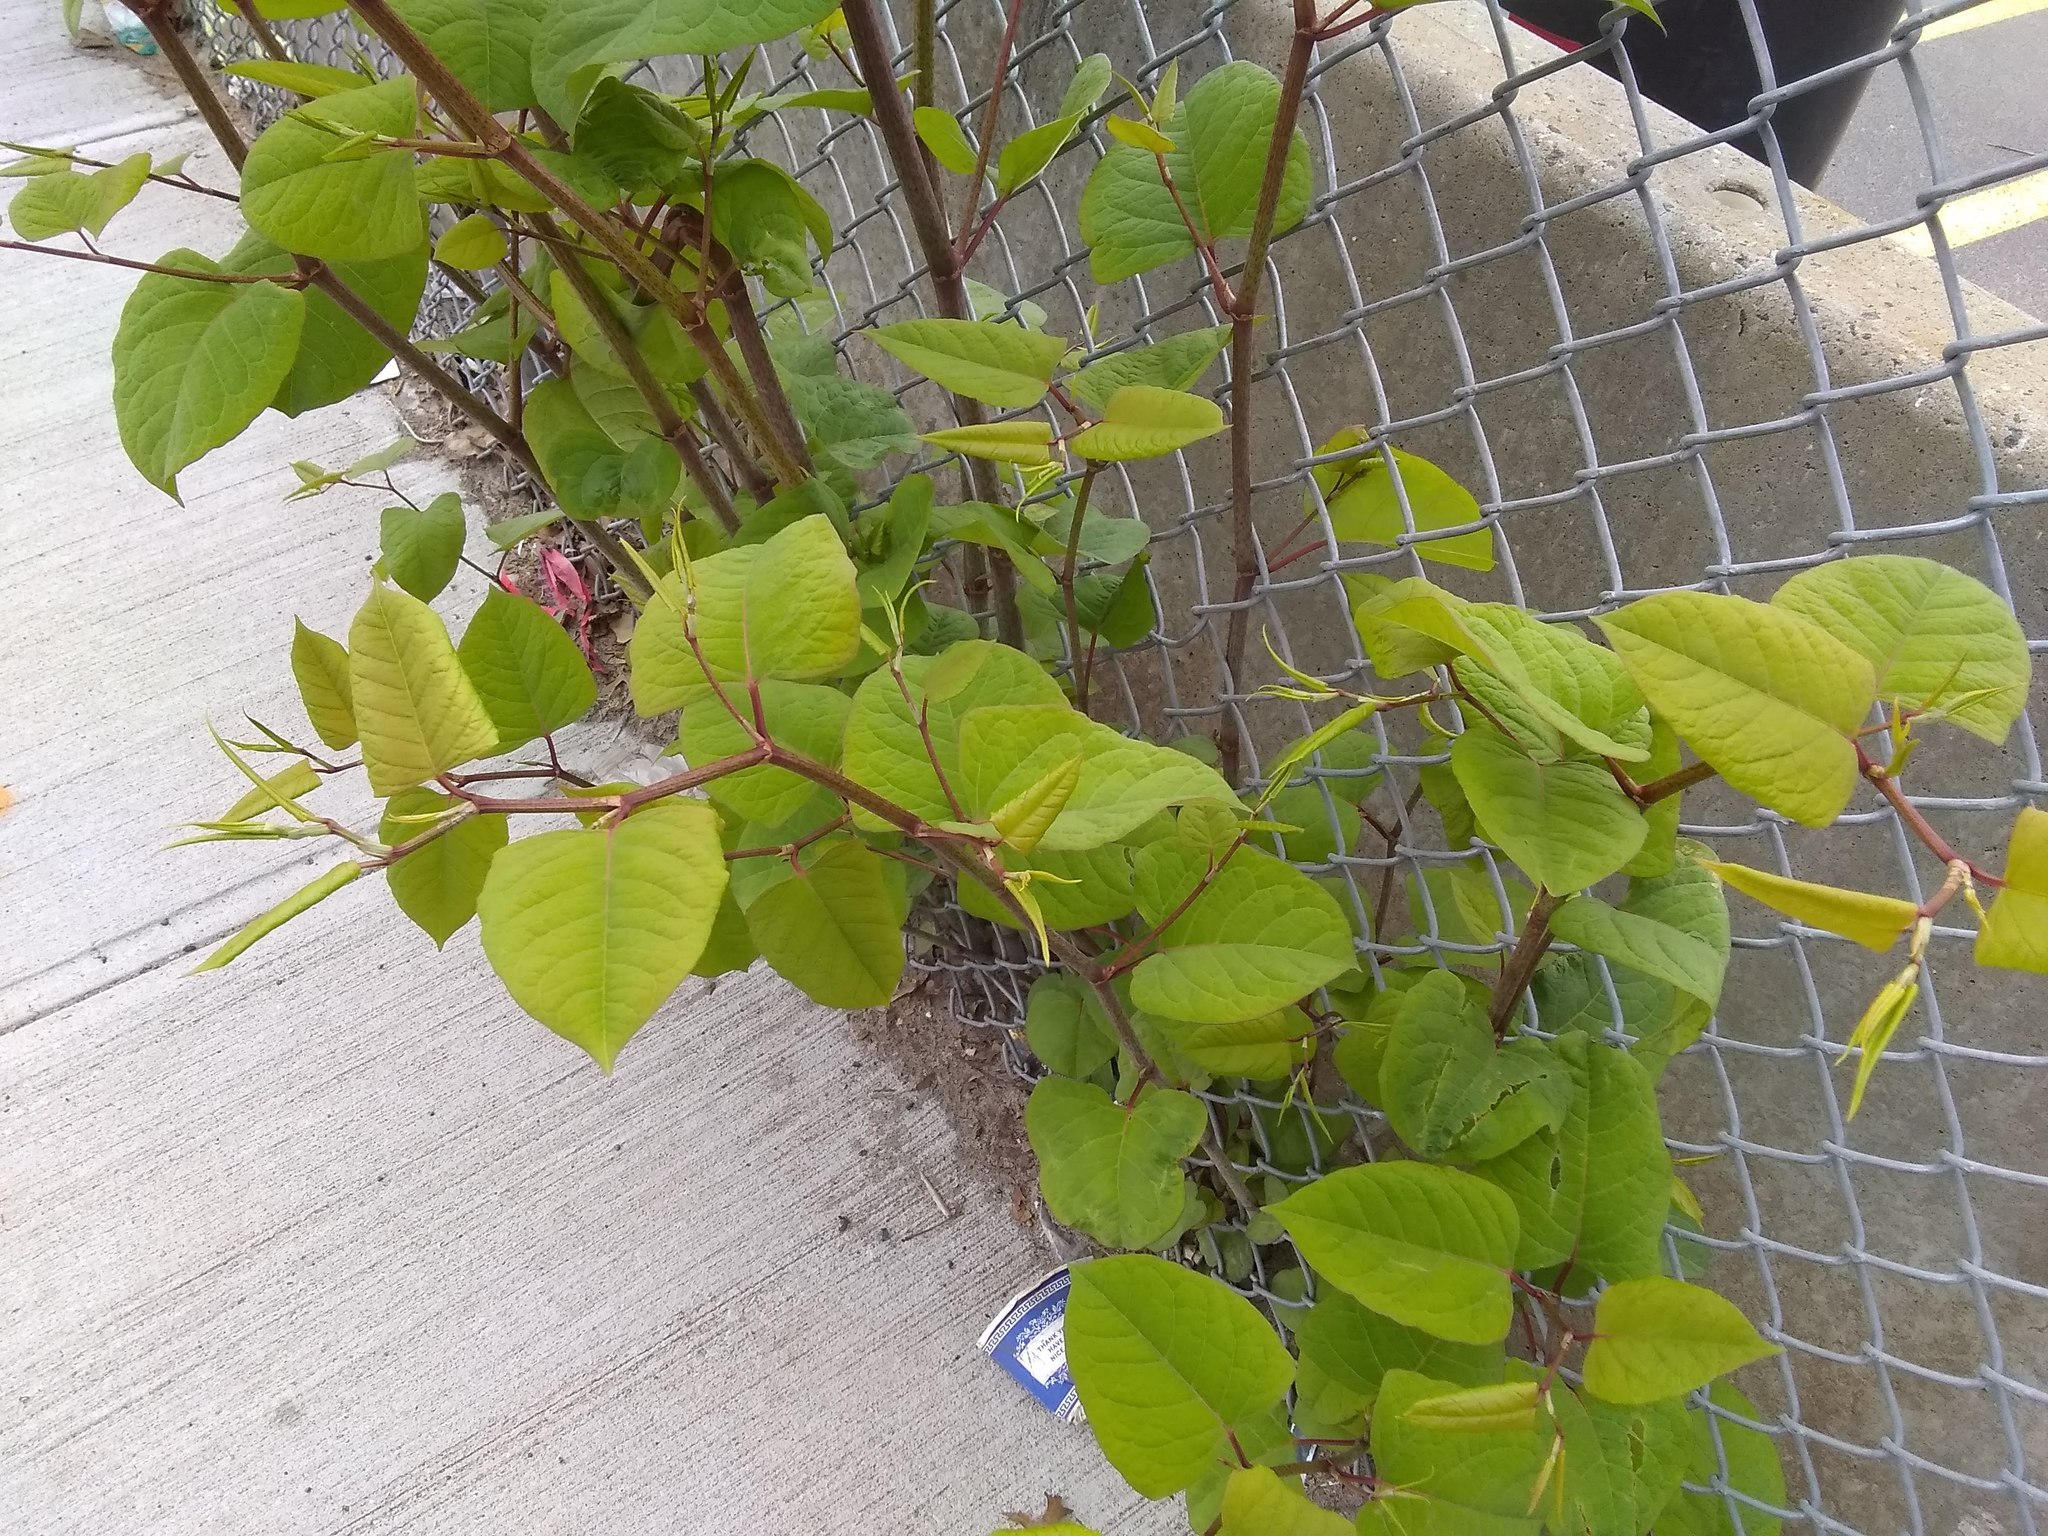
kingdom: Plantae
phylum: Tracheophyta
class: Magnoliopsida
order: Caryophyllales
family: Polygonaceae
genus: Reynoutria
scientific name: Reynoutria japonica
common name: Japanese knotweed
